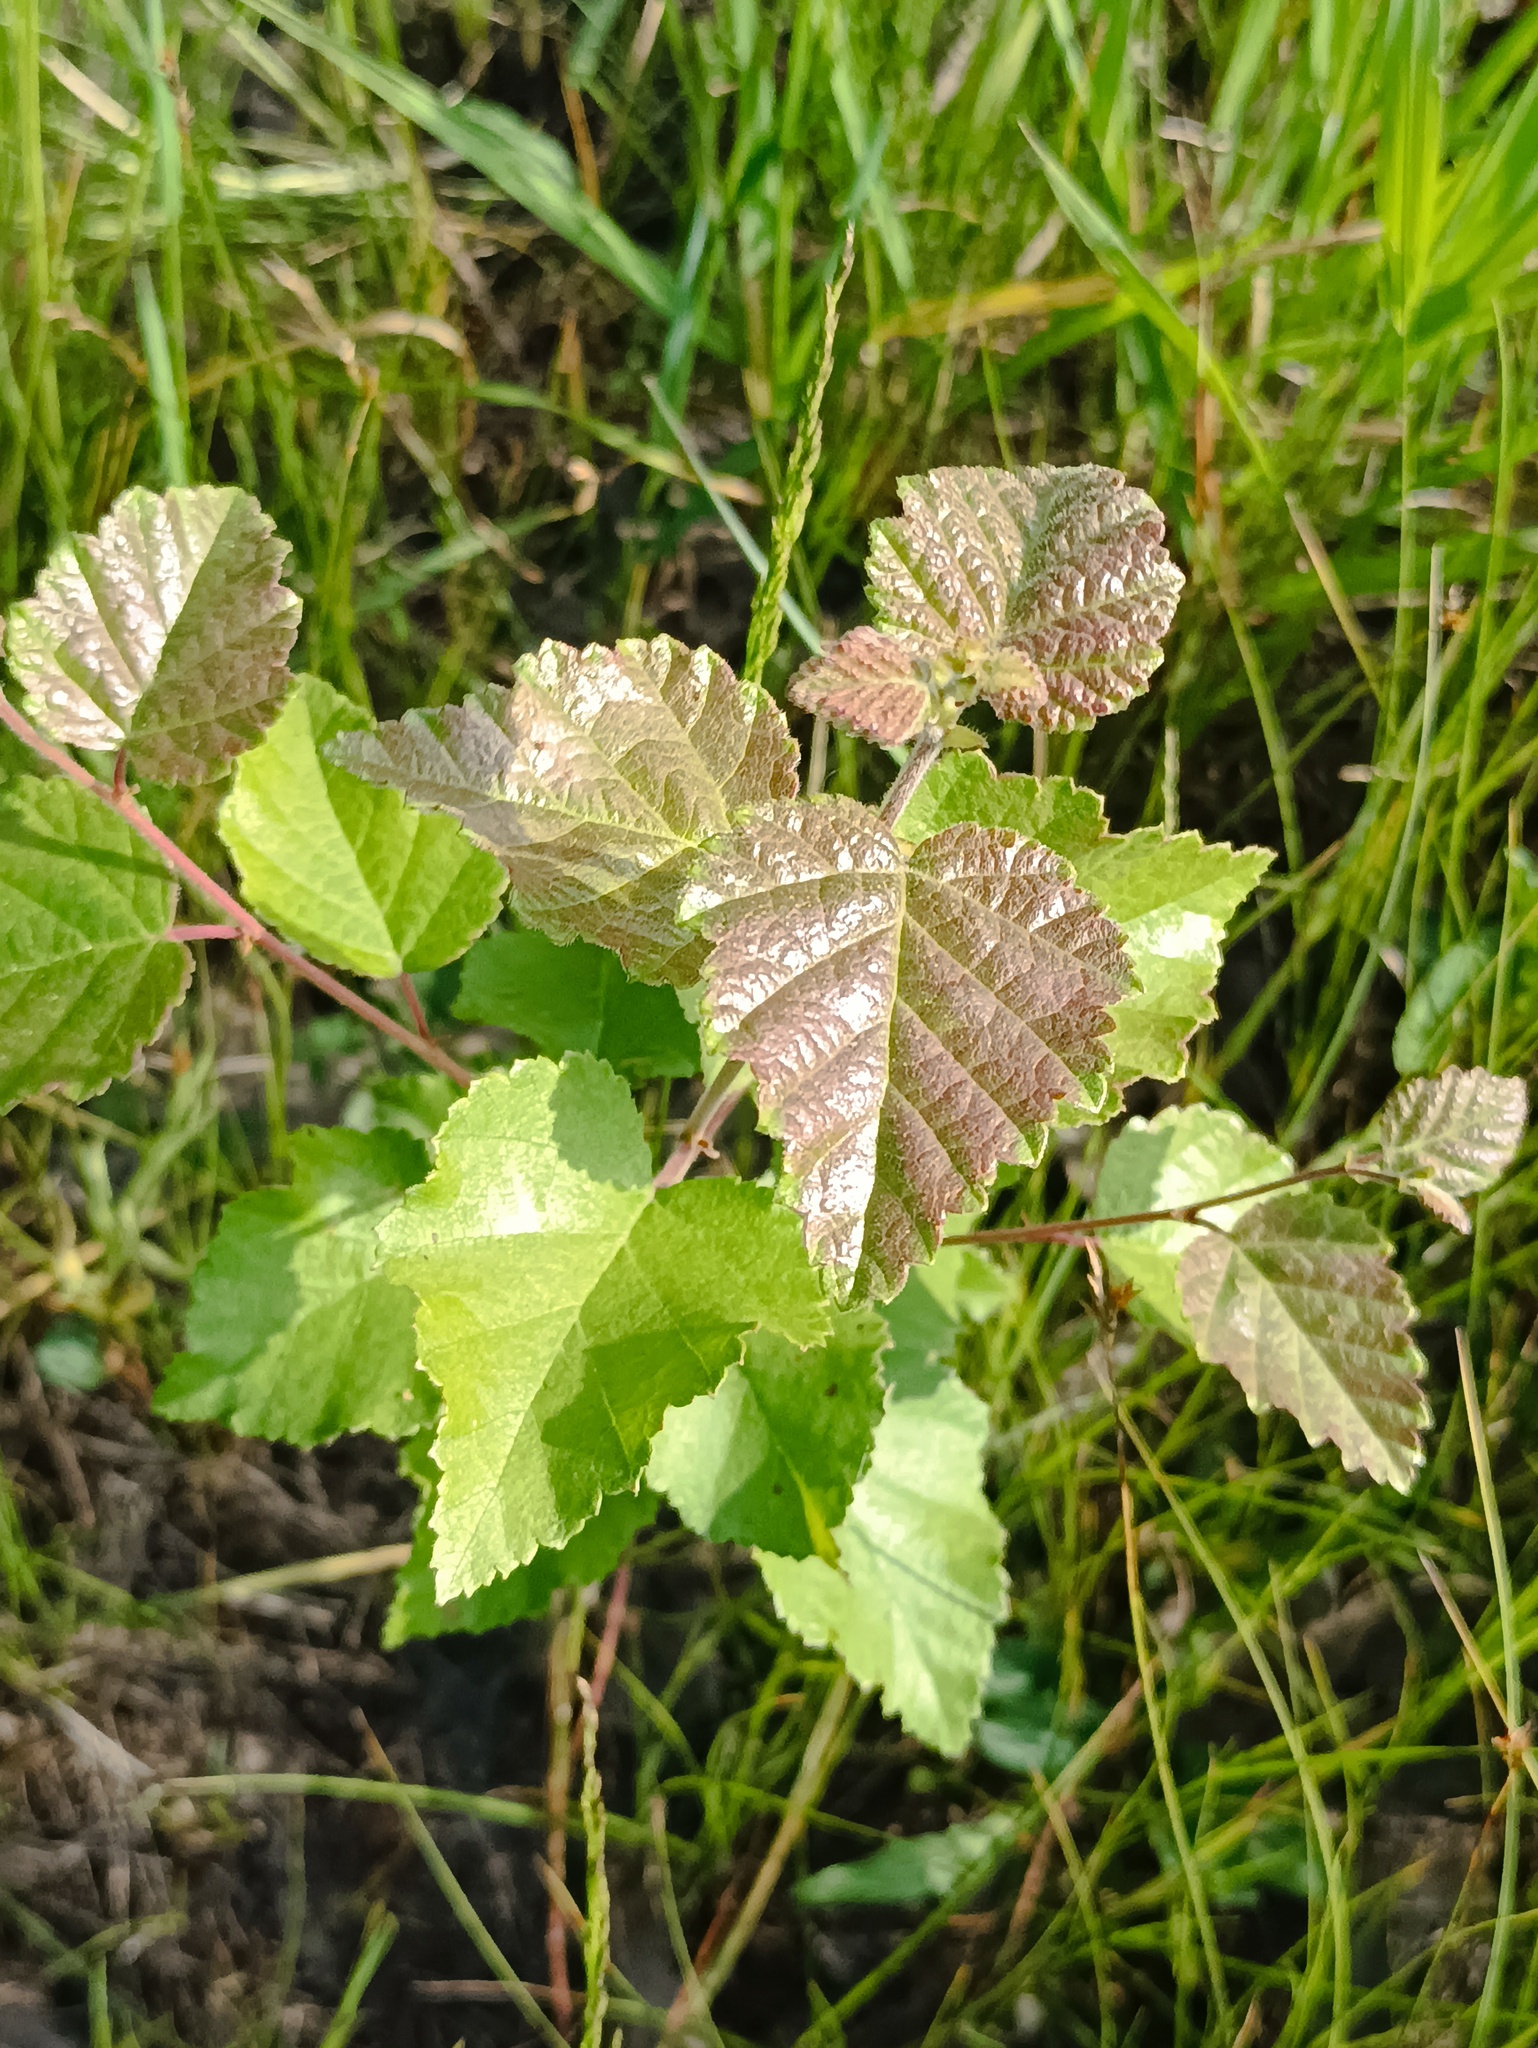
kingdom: Plantae
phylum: Tracheophyta
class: Magnoliopsida
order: Fagales
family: Betulaceae
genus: Betula
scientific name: Betula pubescens
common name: Downy birch
